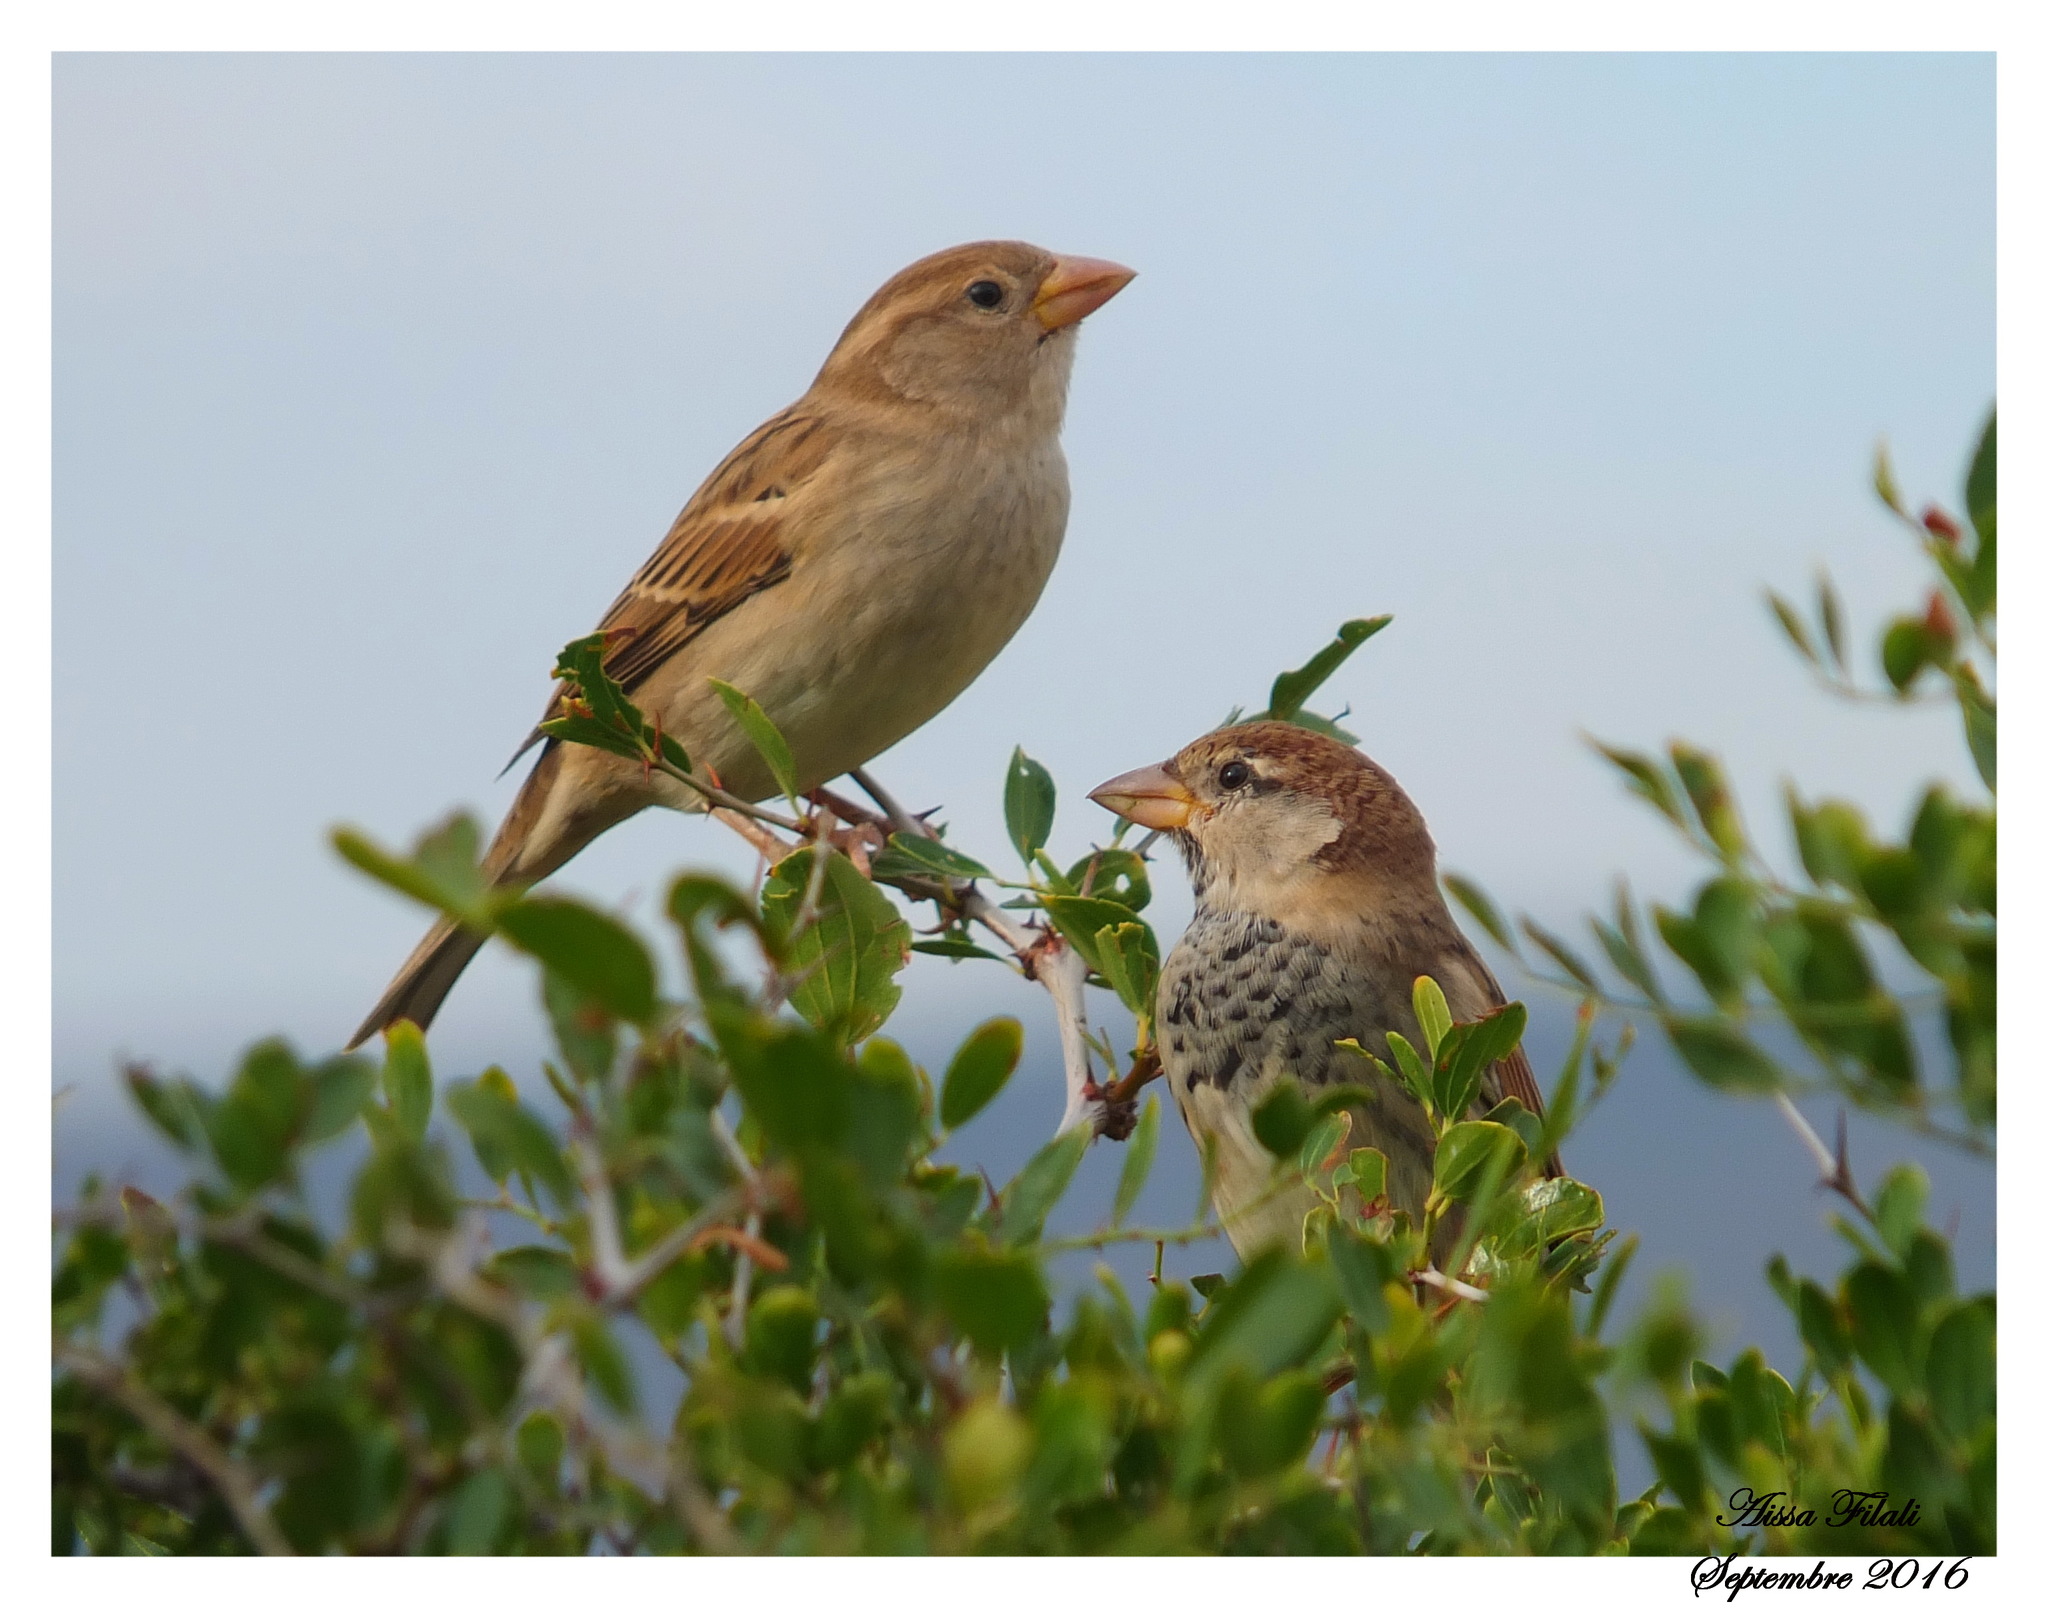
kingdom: Animalia
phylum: Chordata
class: Aves
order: Passeriformes
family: Passeridae
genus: Passer
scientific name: Passer domesticus
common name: House sparrow
